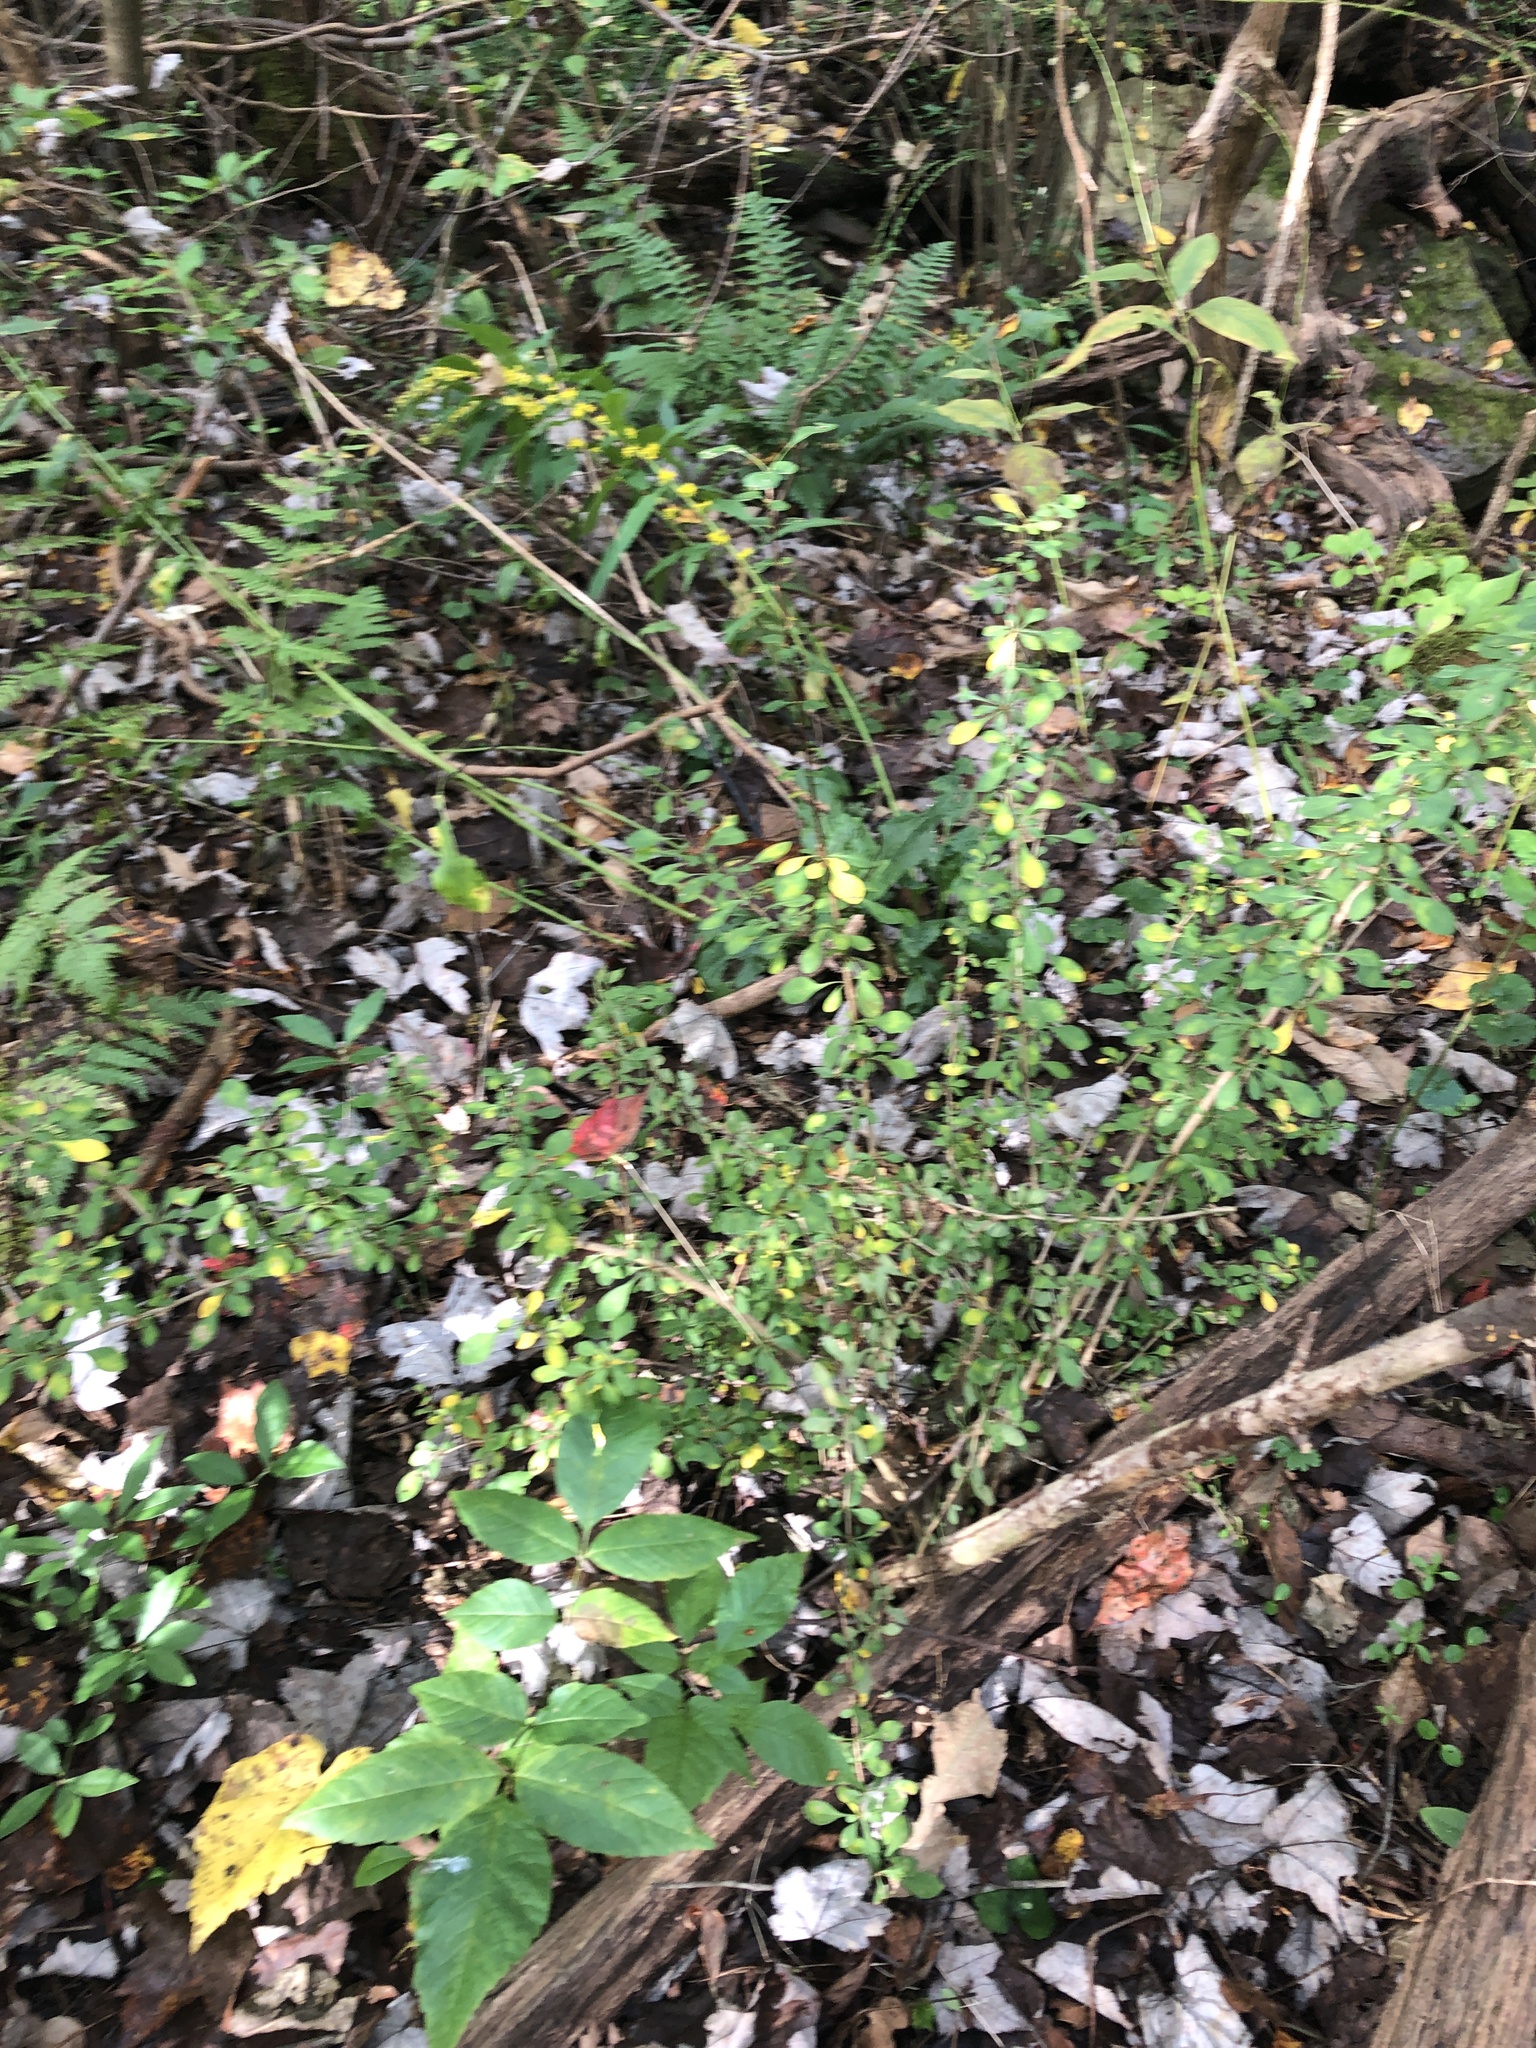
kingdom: Plantae
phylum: Tracheophyta
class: Magnoliopsida
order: Ranunculales
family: Berberidaceae
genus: Berberis
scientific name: Berberis thunbergii
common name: Japanese barberry
